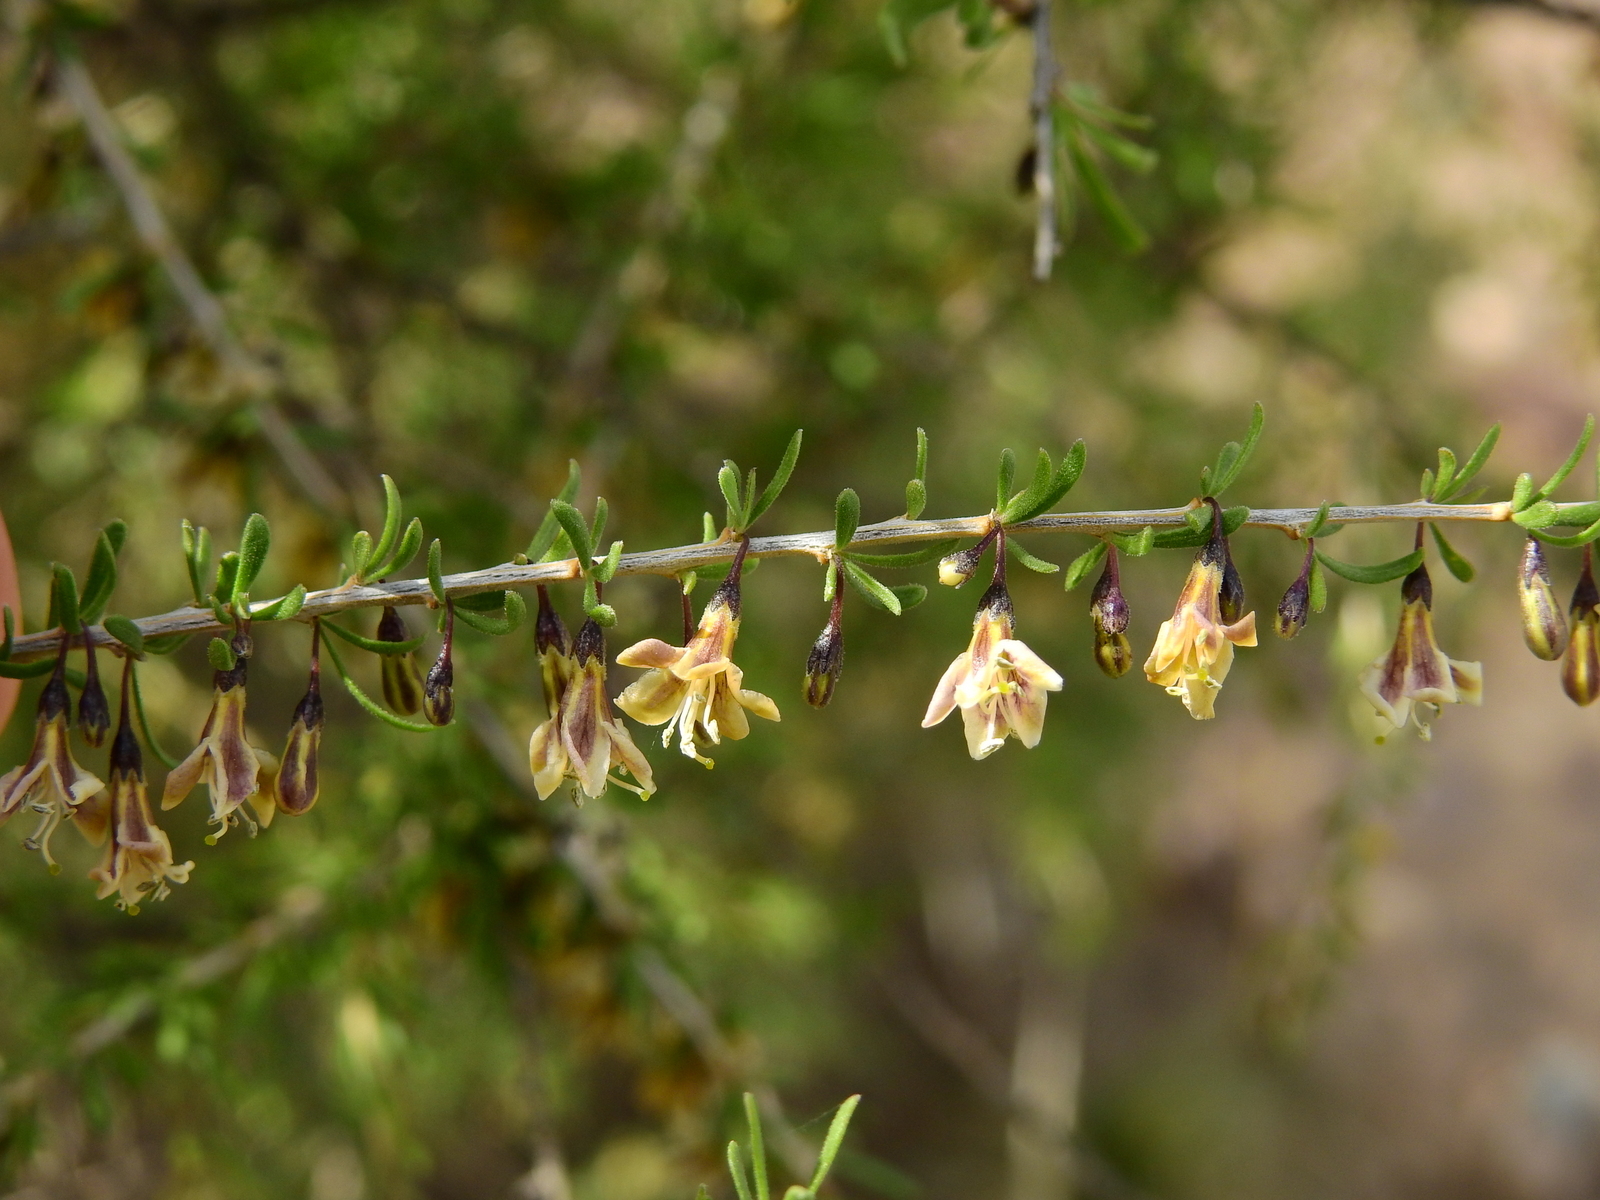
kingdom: Plantae
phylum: Tracheophyta
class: Magnoliopsida
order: Solanales
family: Solanaceae
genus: Lycium
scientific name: Lycium chilense
